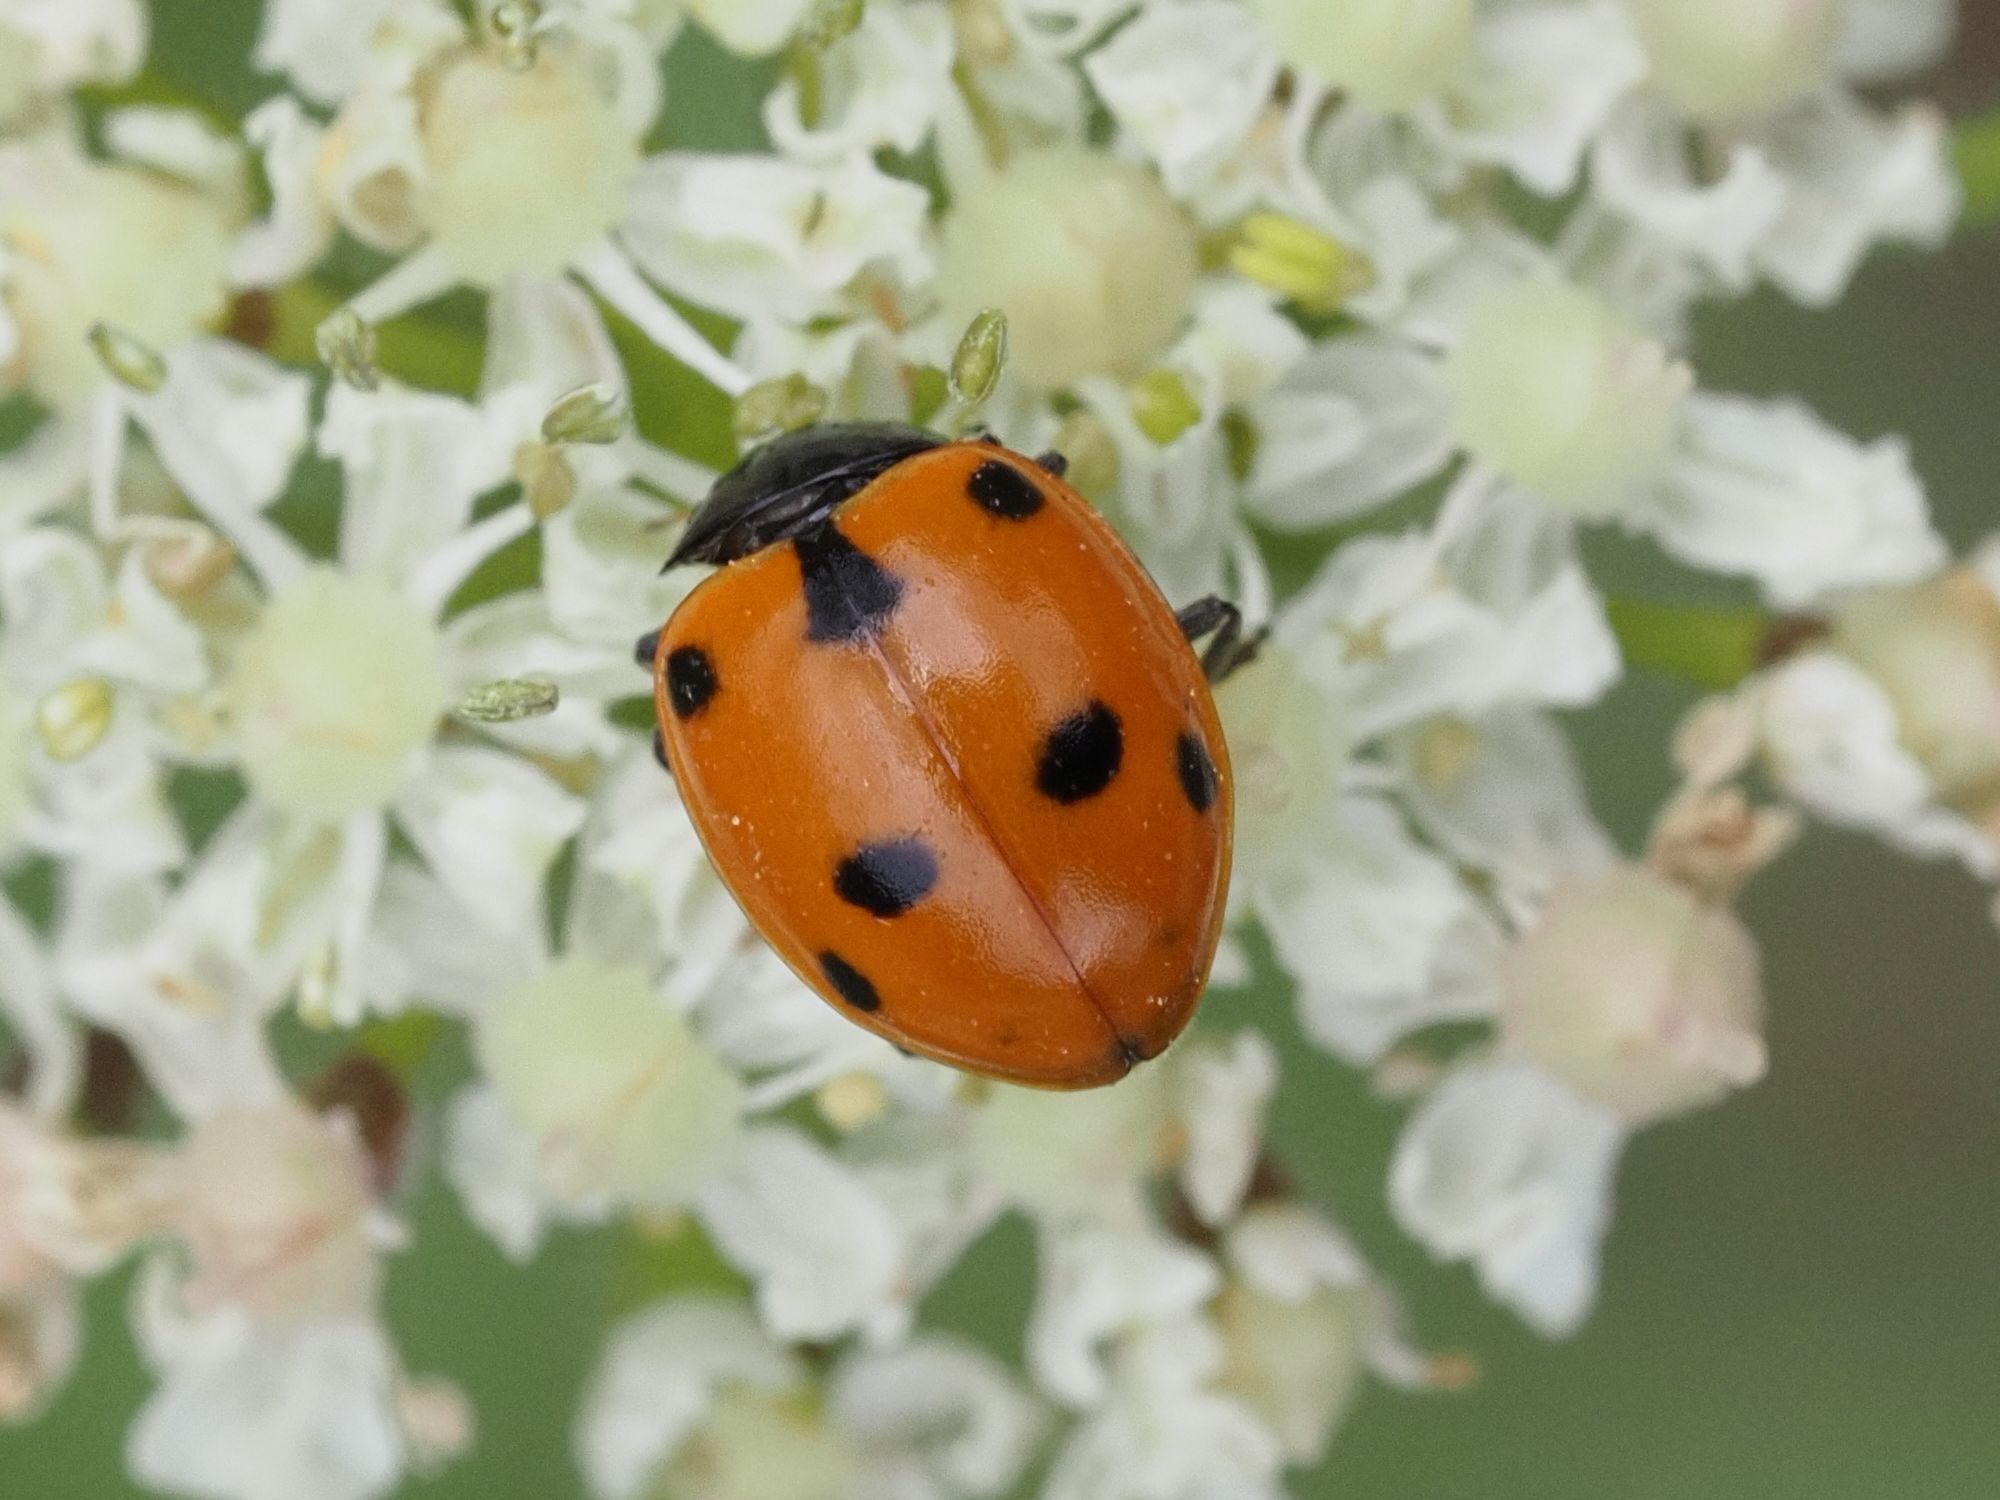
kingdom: Animalia
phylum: Arthropoda
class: Insecta
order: Coleoptera
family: Coccinellidae
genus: Ceratomegilla
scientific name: Ceratomegilla undecimnotata
